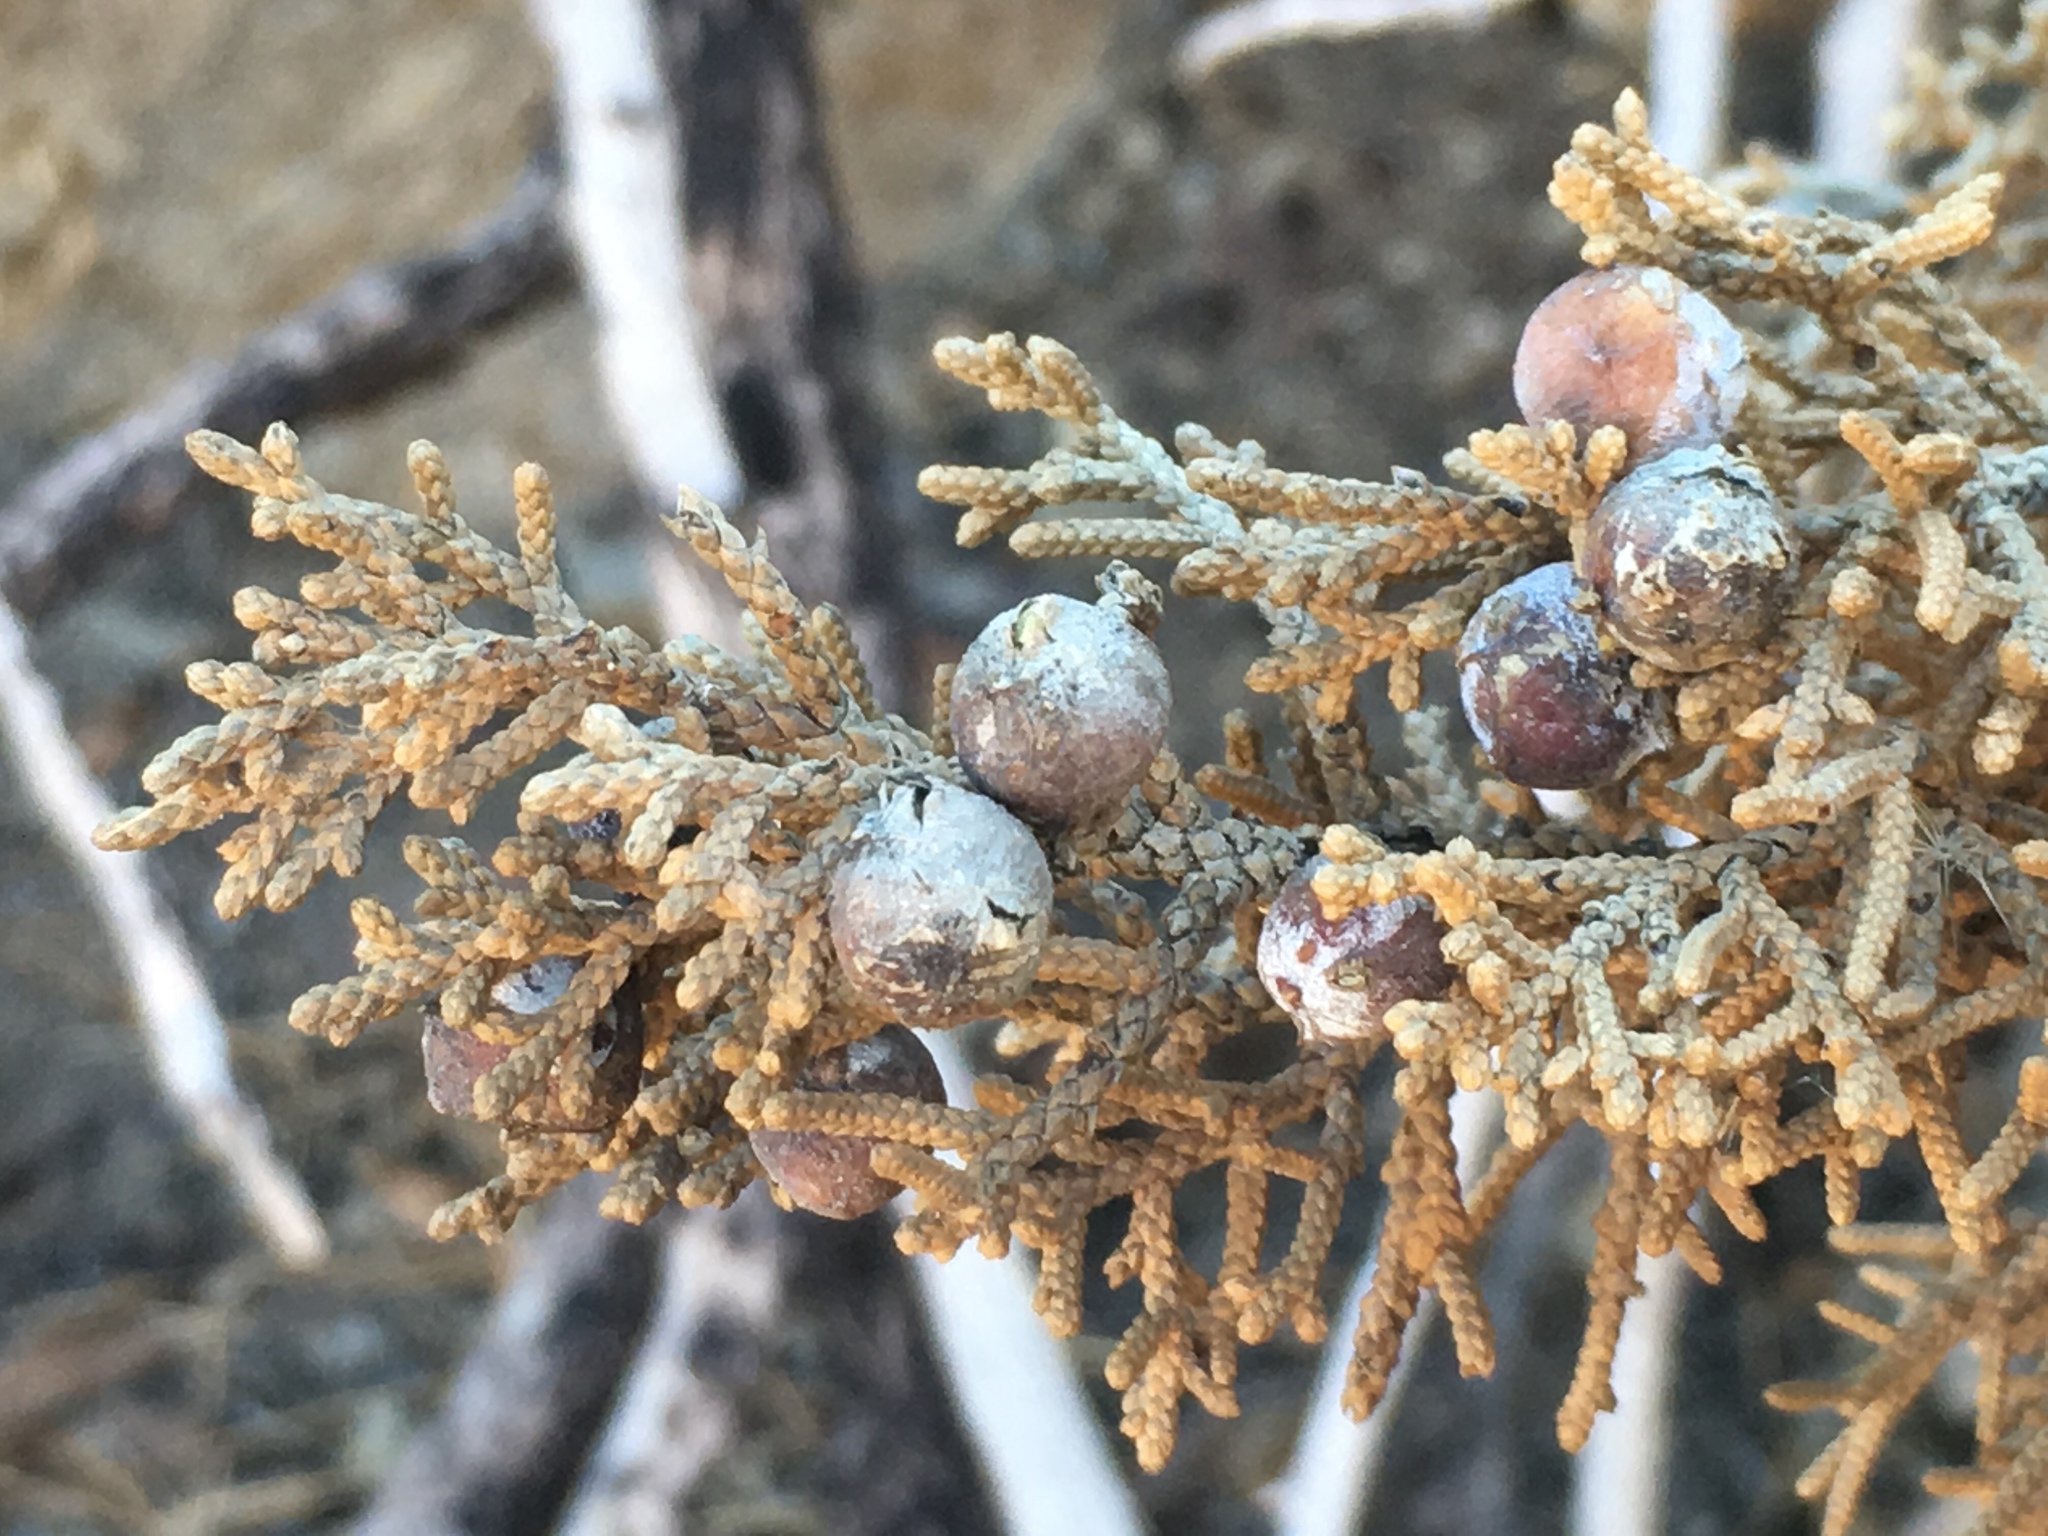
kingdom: Plantae
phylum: Tracheophyta
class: Pinopsida
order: Pinales
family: Cupressaceae
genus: Juniperus
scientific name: Juniperus californica
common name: California juniper
